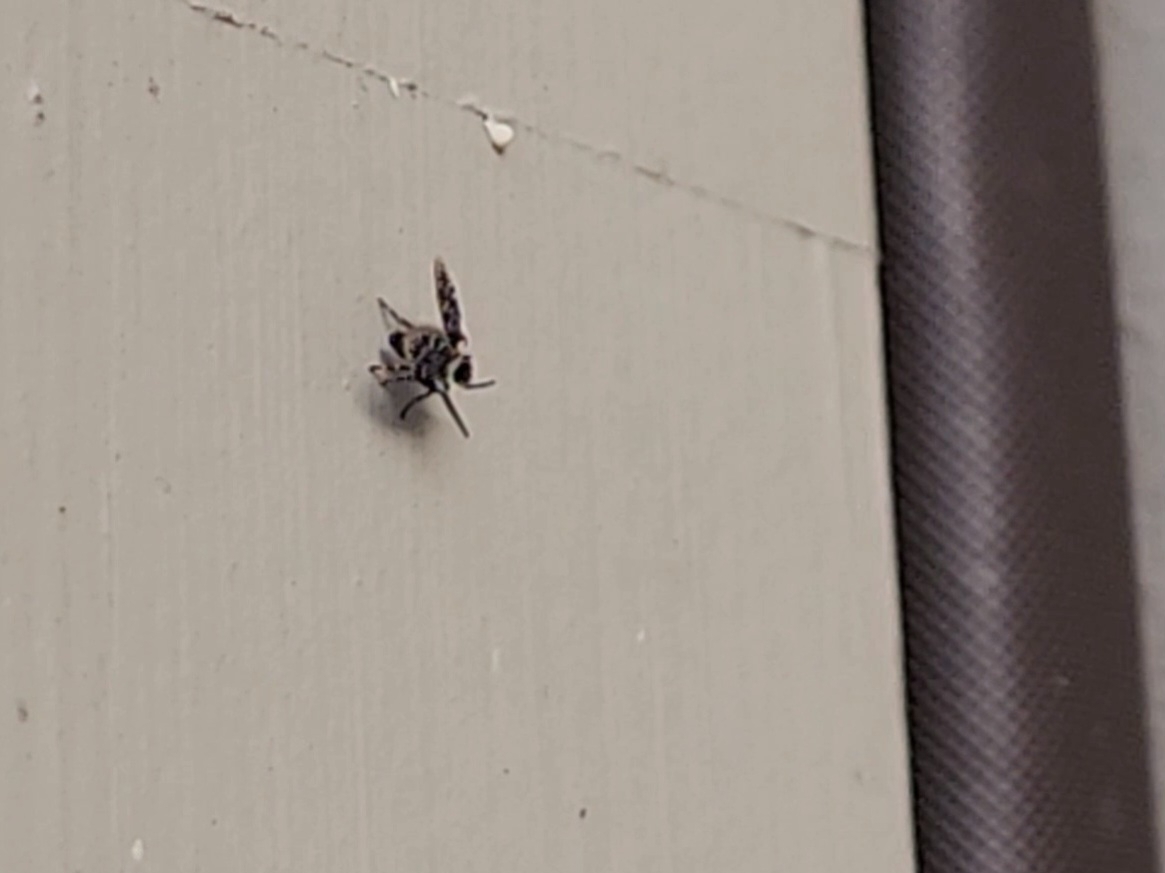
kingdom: Animalia
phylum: Arthropoda
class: Insecta
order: Diptera
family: Psychodidae
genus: Lepiseodina
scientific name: Lepiseodina
